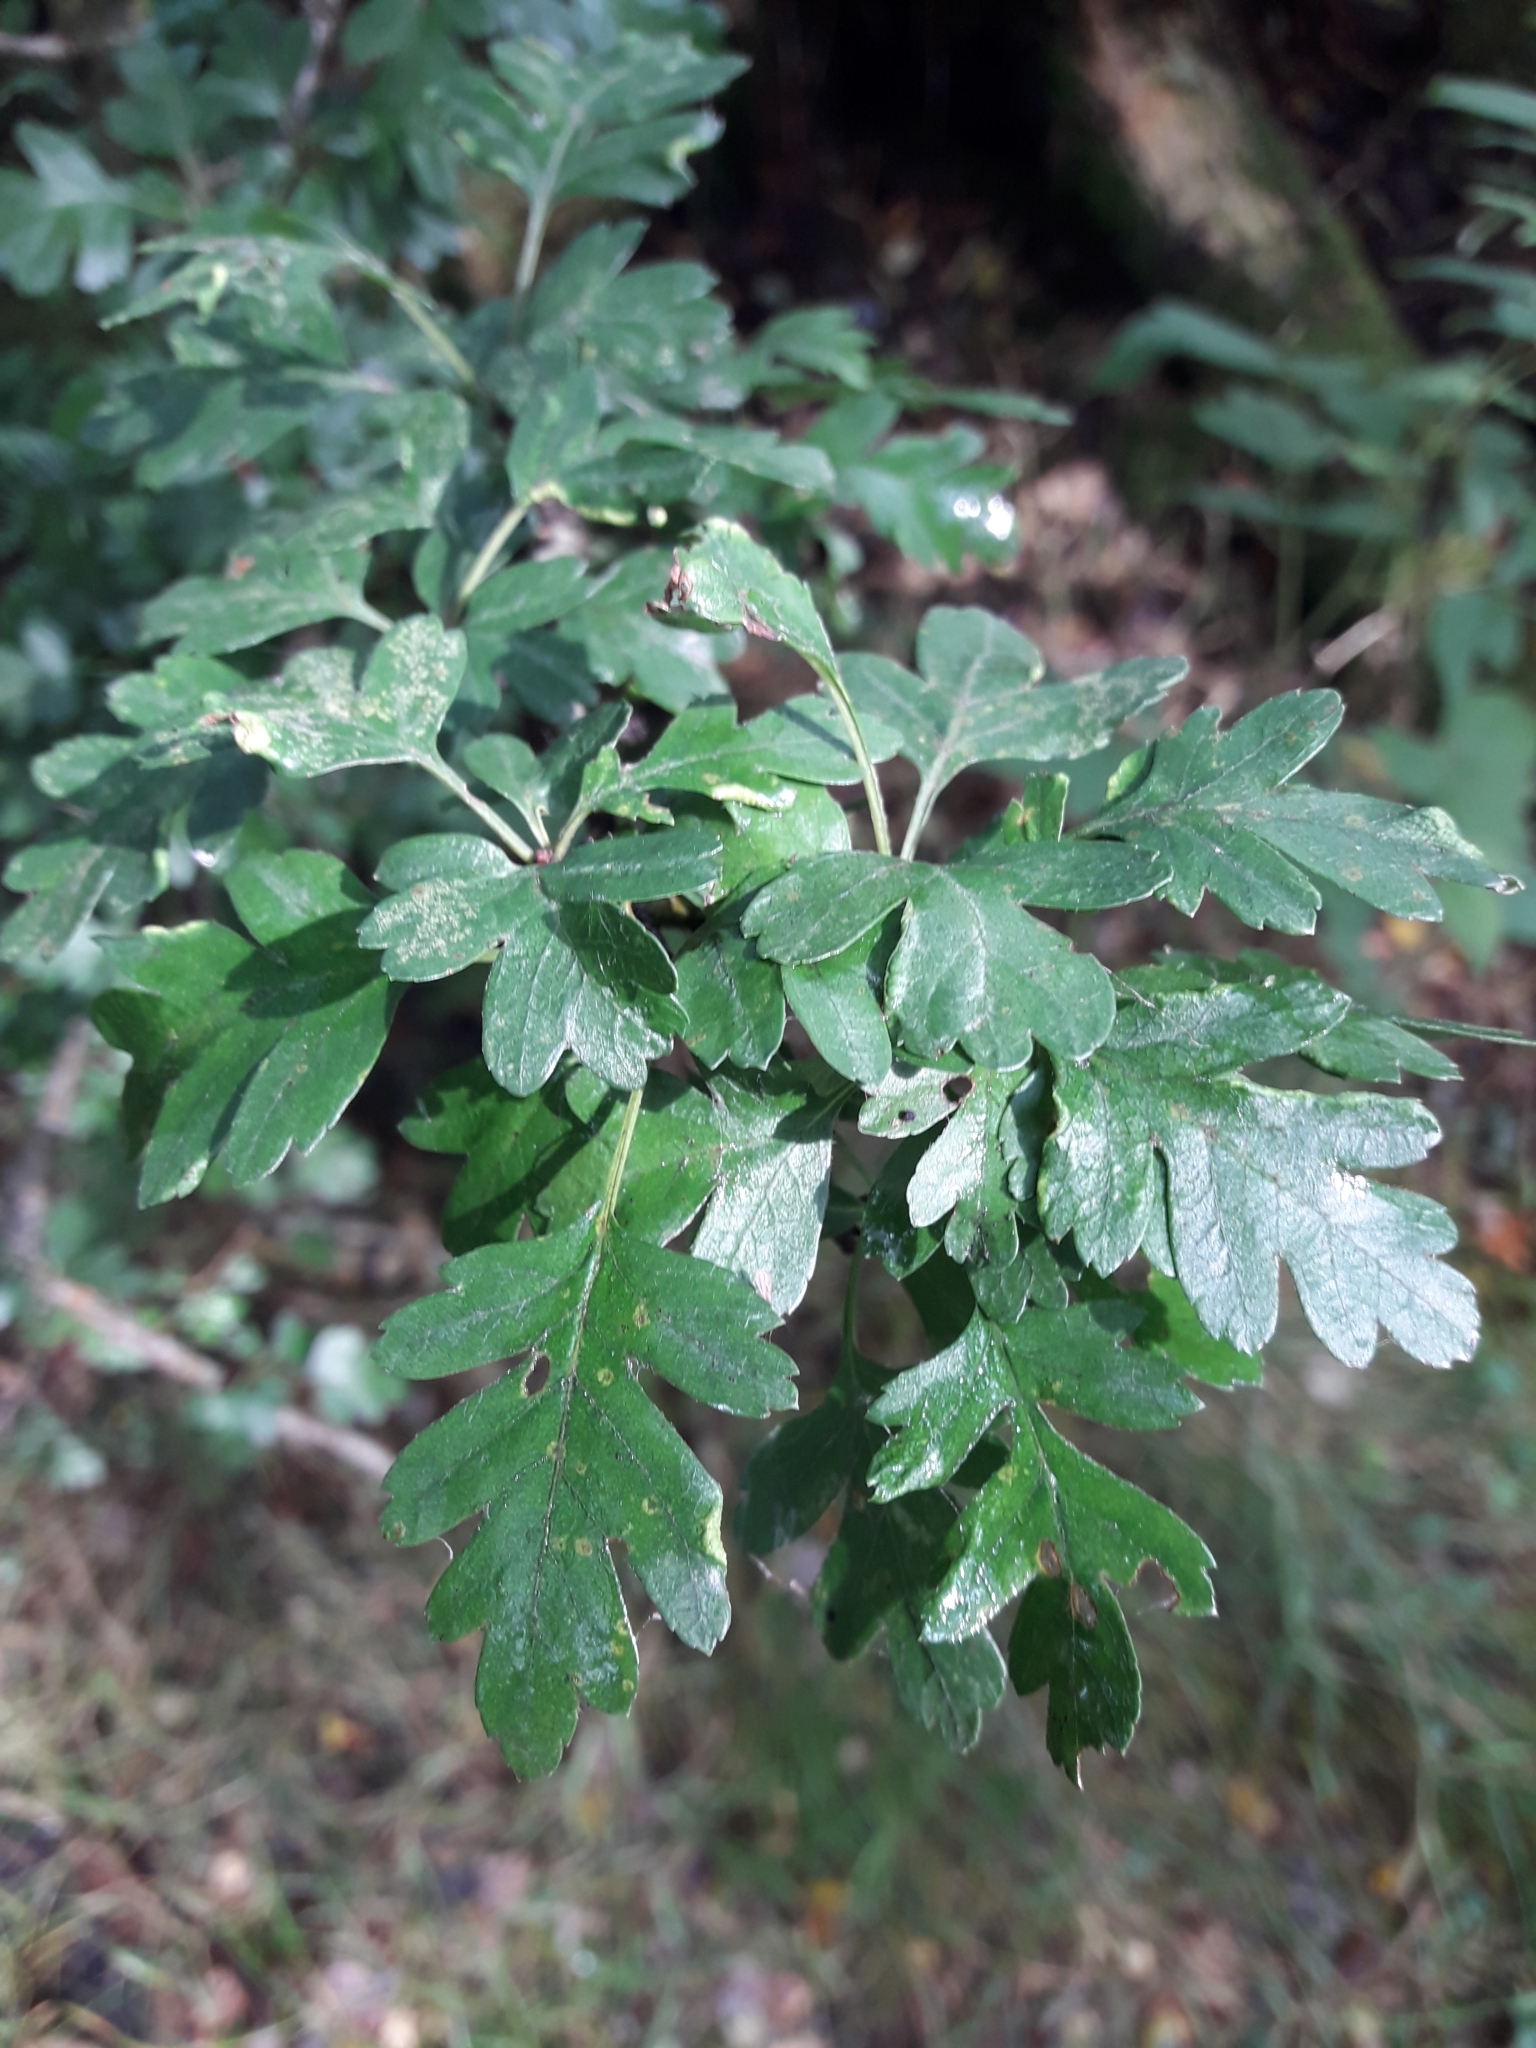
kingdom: Plantae
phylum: Tracheophyta
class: Magnoliopsida
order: Rosales
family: Rosaceae
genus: Crataegus
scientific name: Crataegus monogyna
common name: Hawthorn
